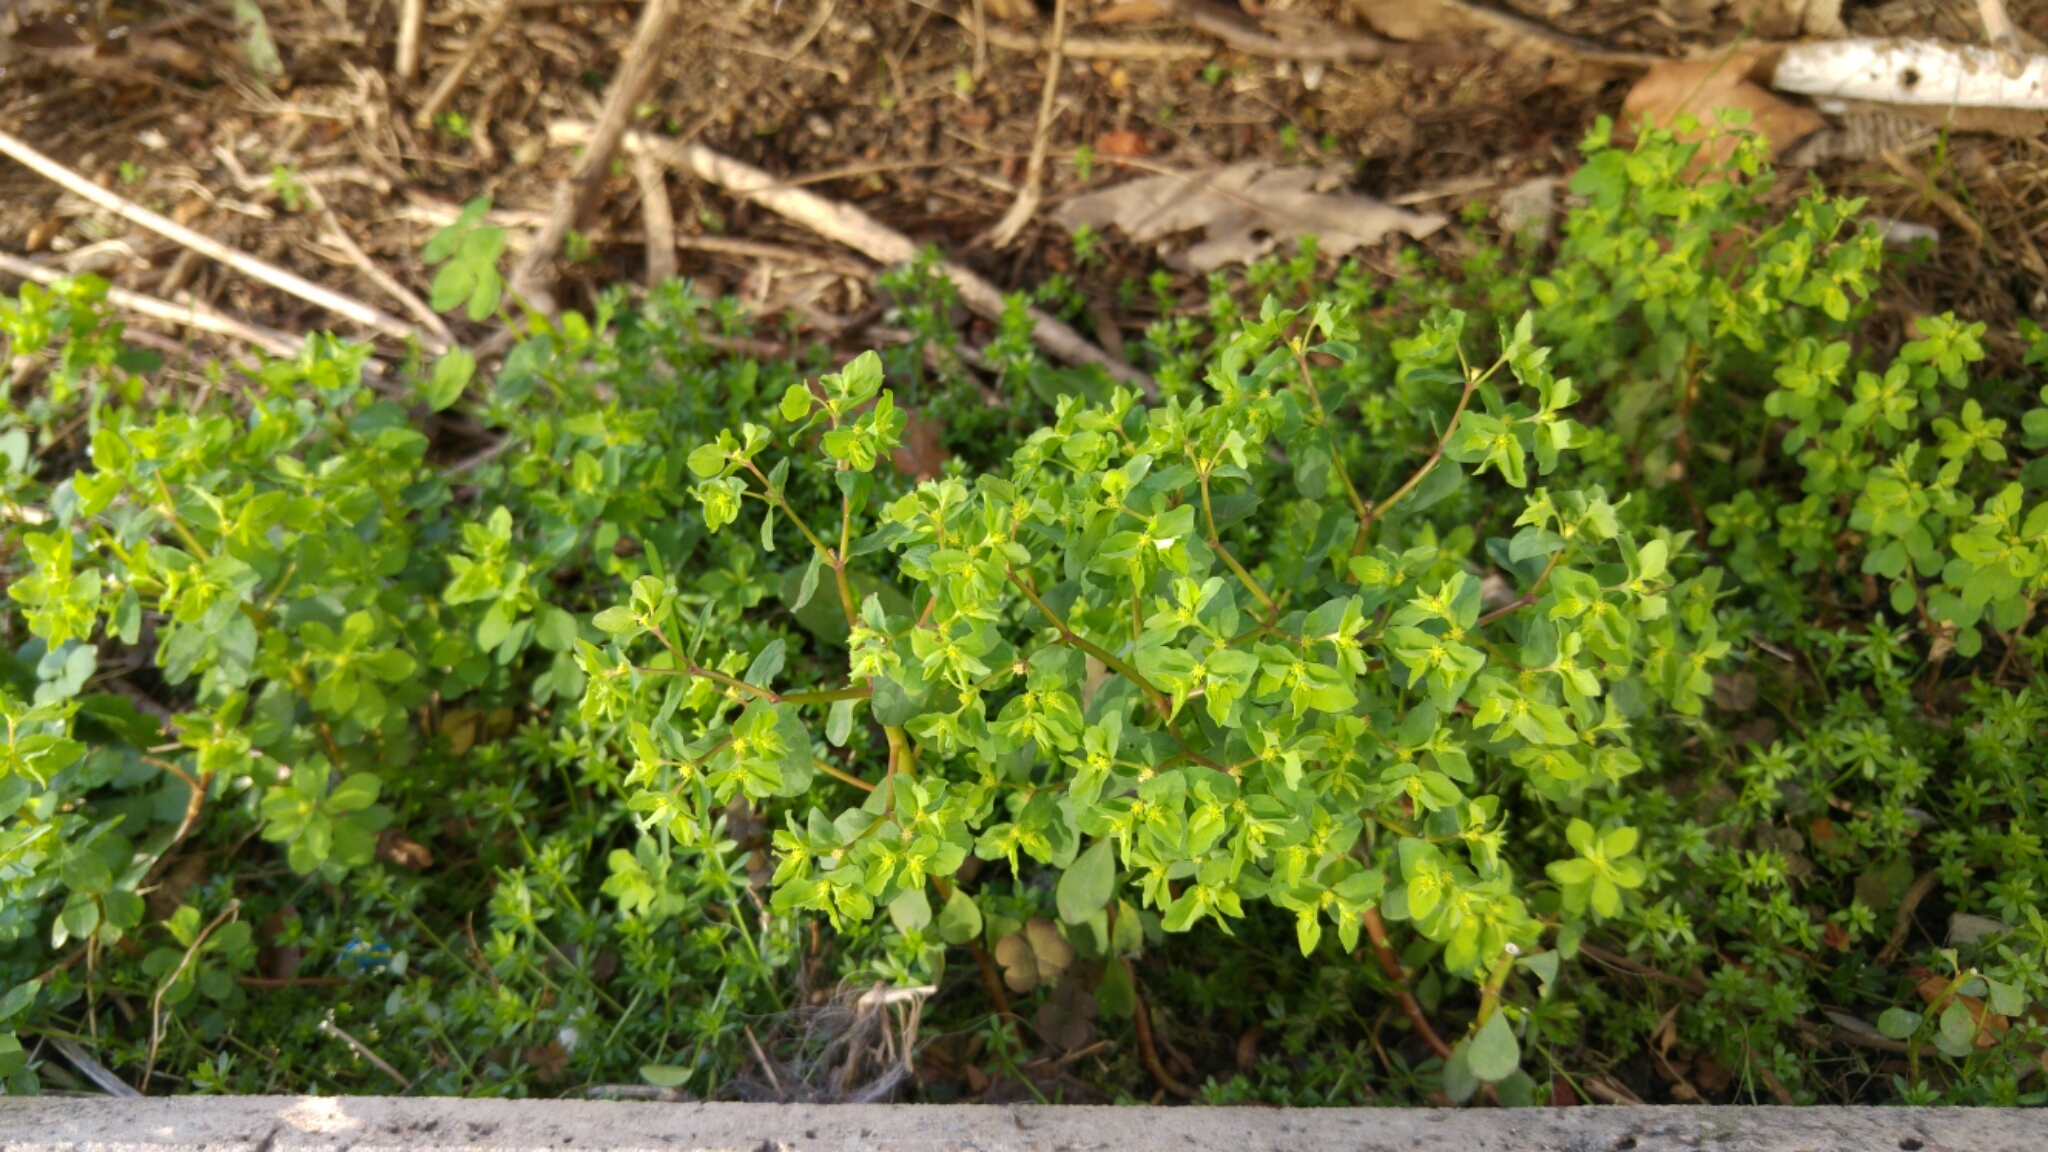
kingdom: Plantae
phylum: Tracheophyta
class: Magnoliopsida
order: Malpighiales
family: Euphorbiaceae
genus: Euphorbia
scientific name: Euphorbia peplus
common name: Petty spurge
